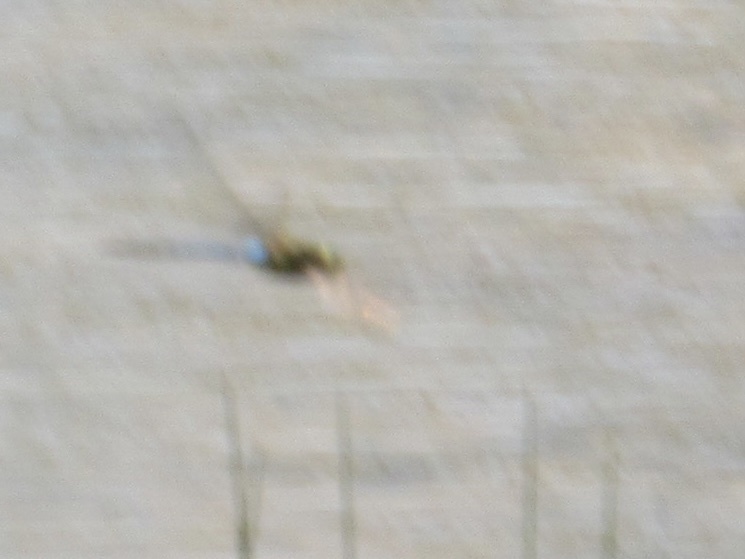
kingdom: Animalia
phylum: Arthropoda
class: Insecta
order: Odonata
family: Aeshnidae
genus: Anax
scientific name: Anax junius
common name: Common green darner
